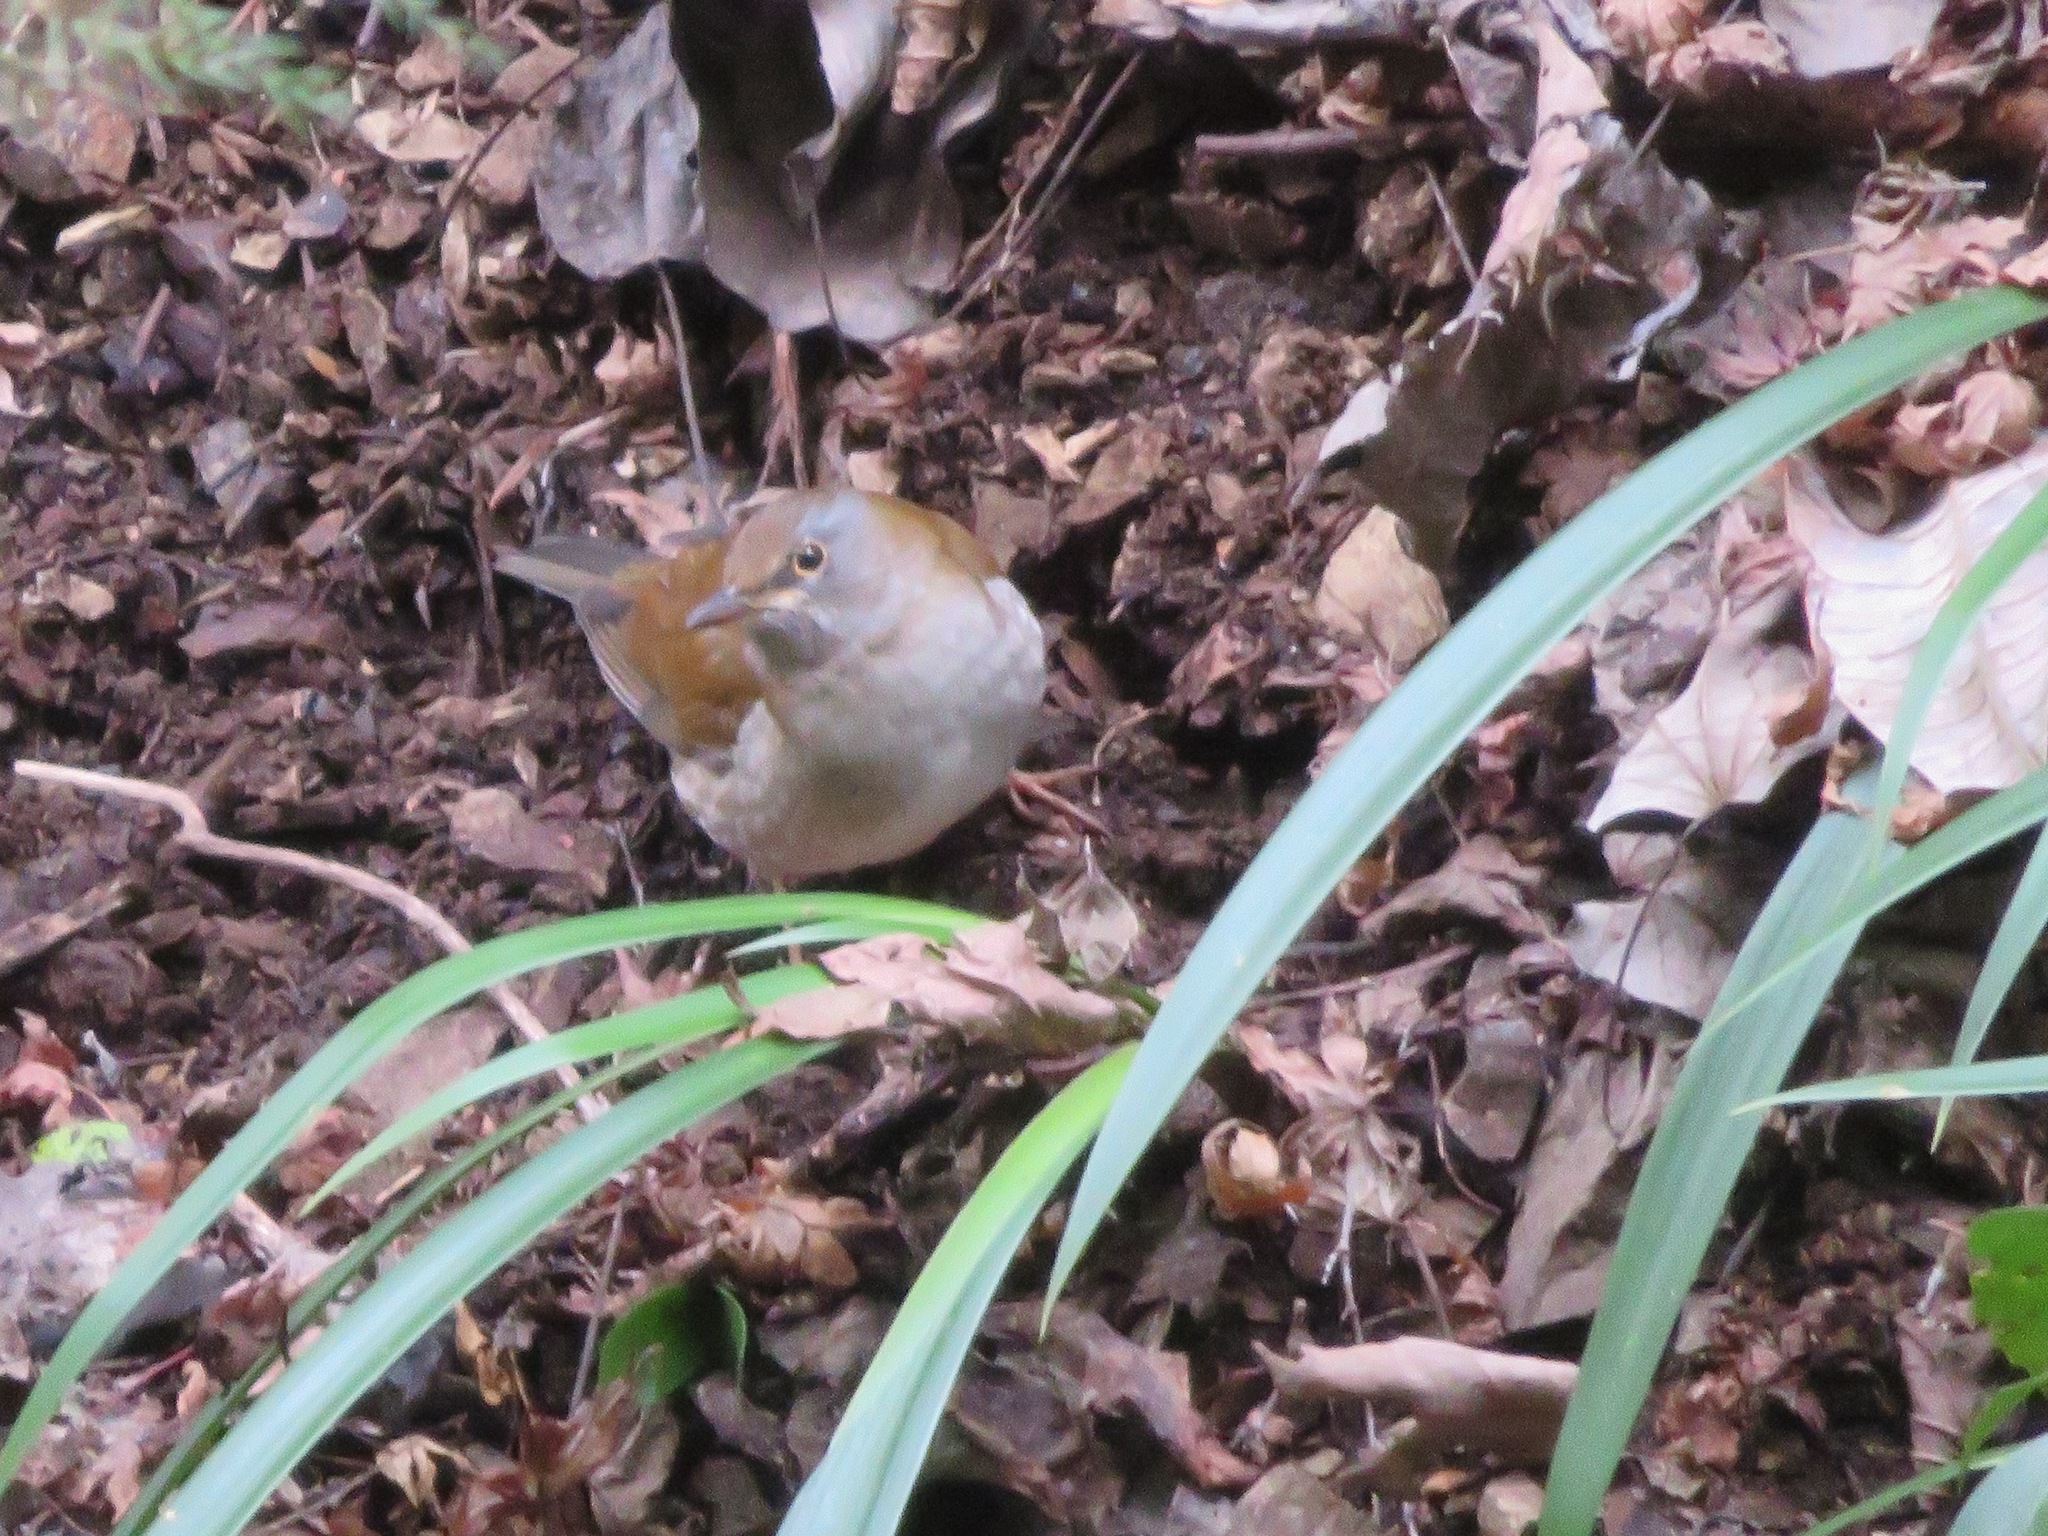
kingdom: Animalia
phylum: Chordata
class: Aves
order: Passeriformes
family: Turdidae
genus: Turdus
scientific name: Turdus pallidus
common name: Pale thrush
